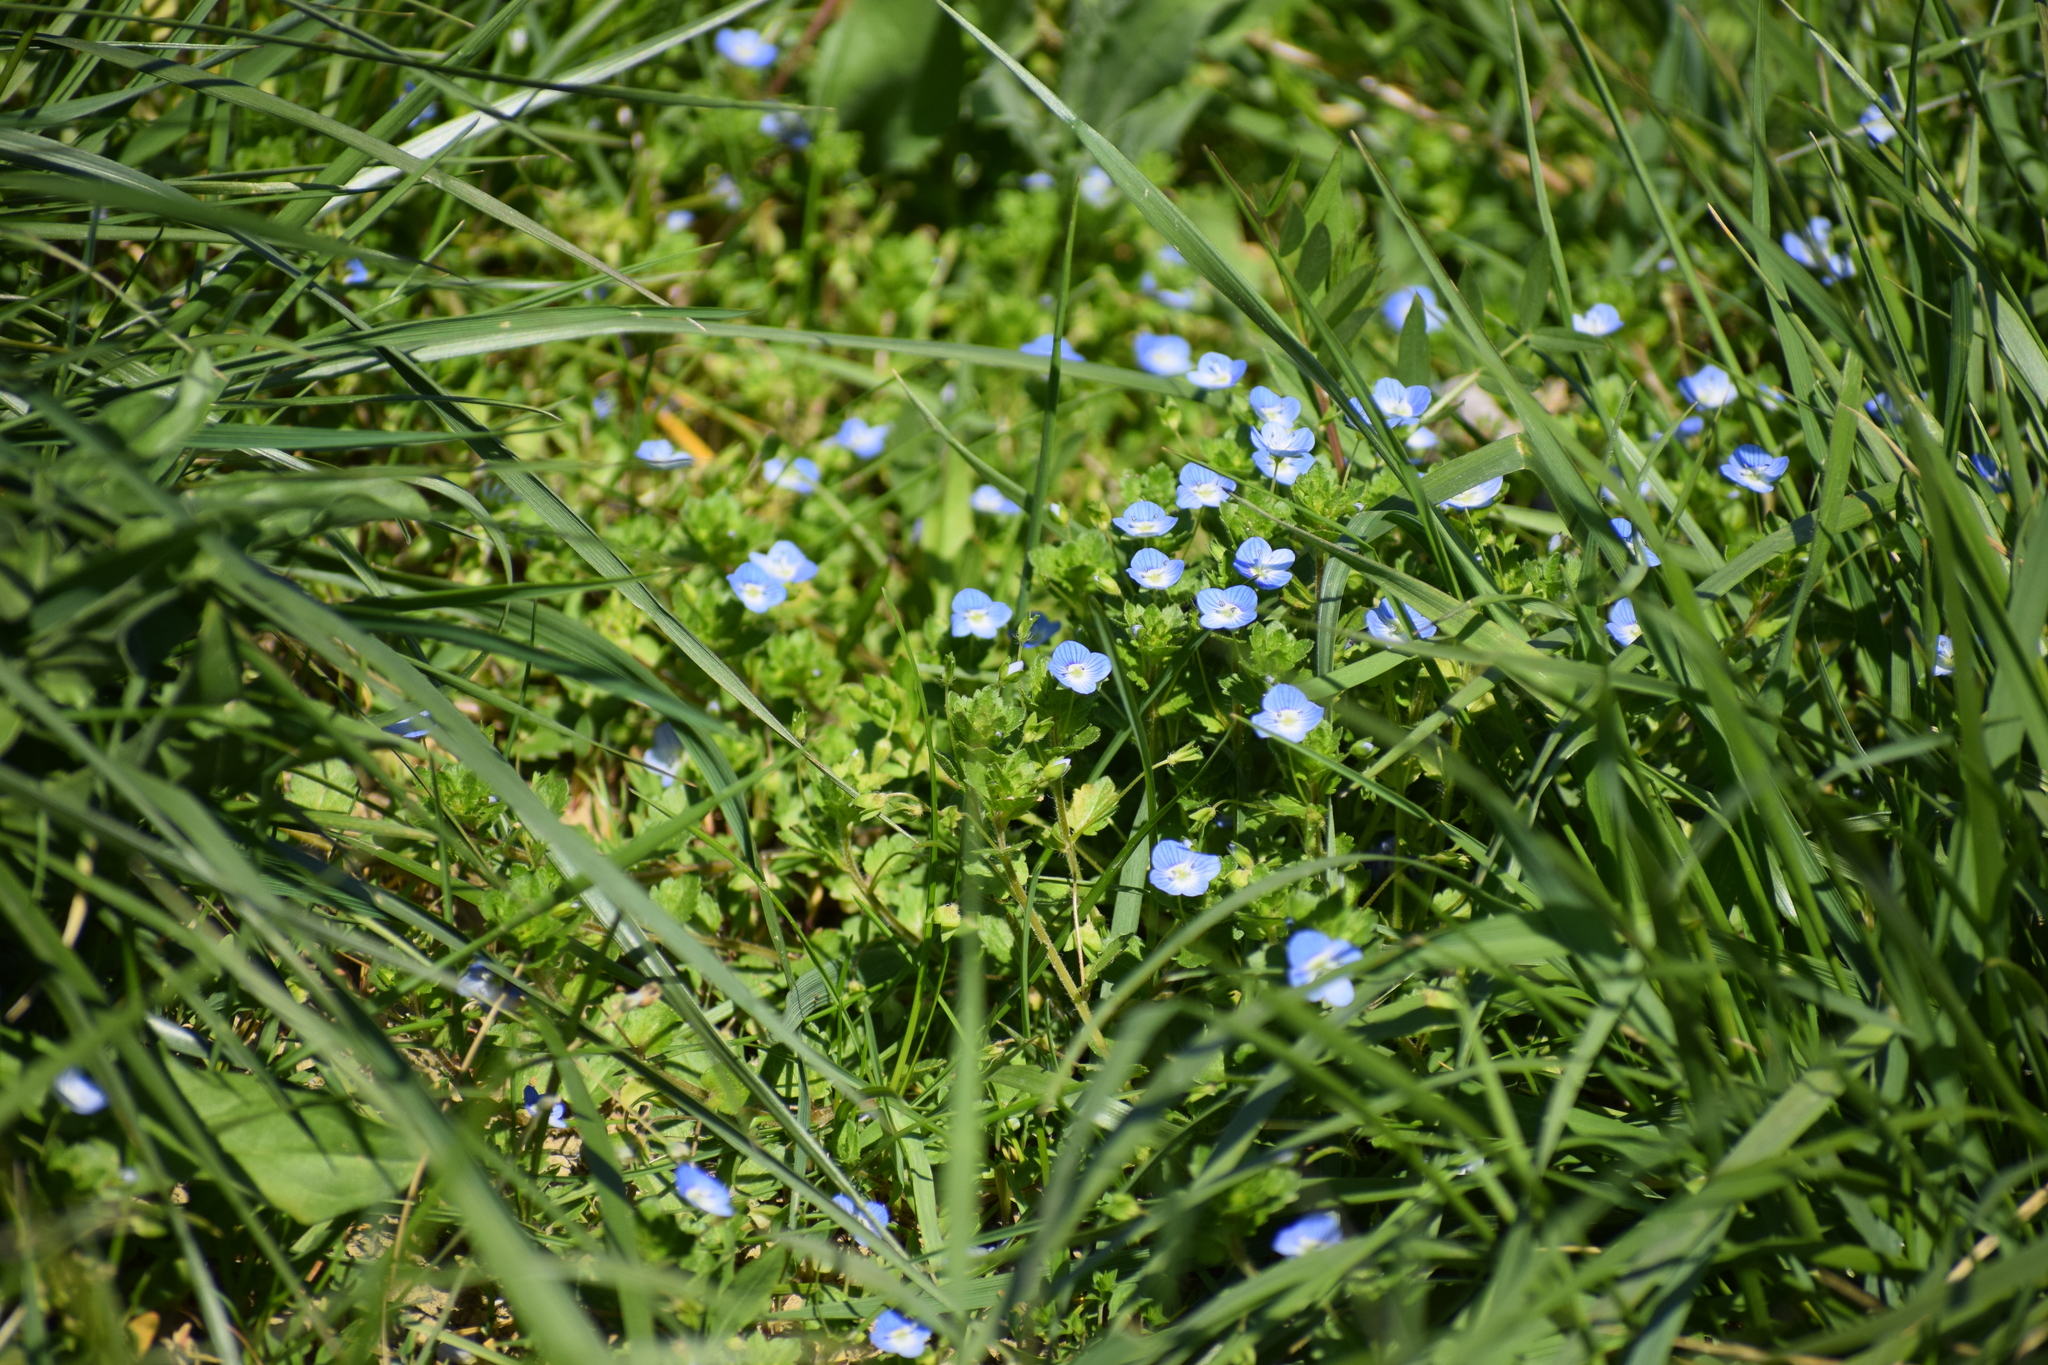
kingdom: Plantae
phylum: Tracheophyta
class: Magnoliopsida
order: Lamiales
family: Plantaginaceae
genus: Veronica
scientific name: Veronica persica
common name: Common field-speedwell
